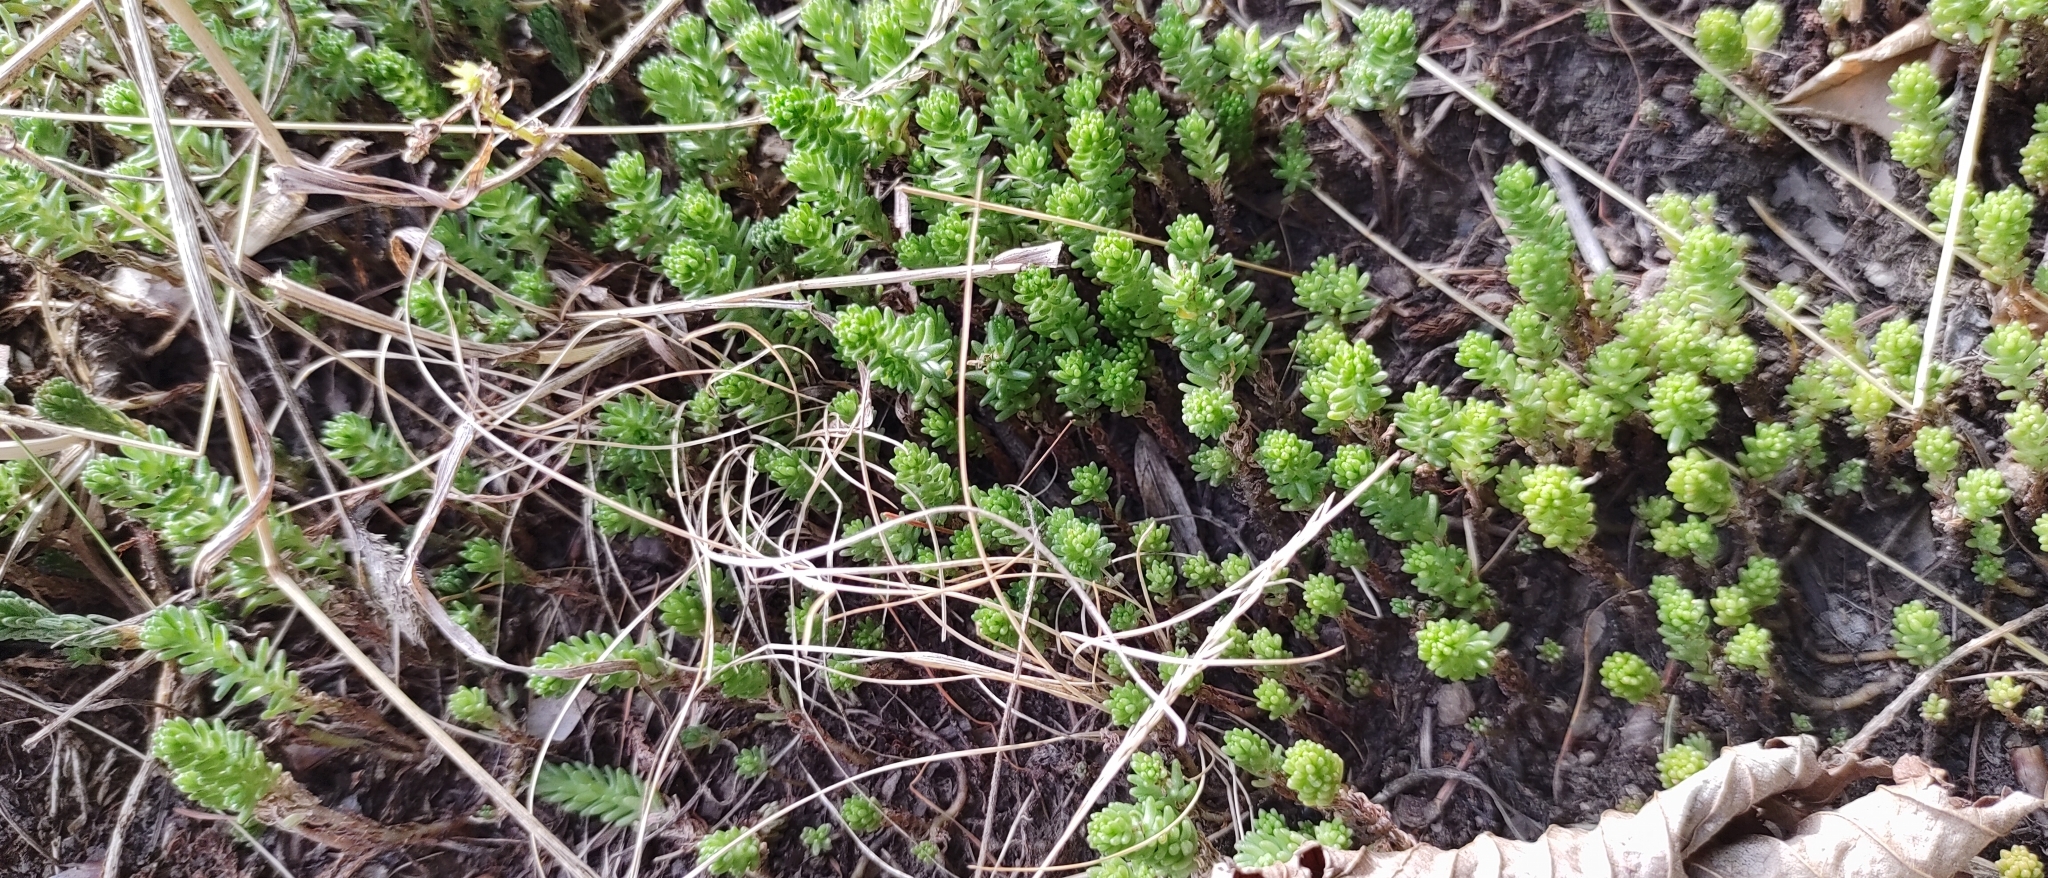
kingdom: Plantae
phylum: Tracheophyta
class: Magnoliopsida
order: Saxifragales
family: Crassulaceae
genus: Sedum
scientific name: Sedum sexangulare
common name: Tasteless stonecrop
